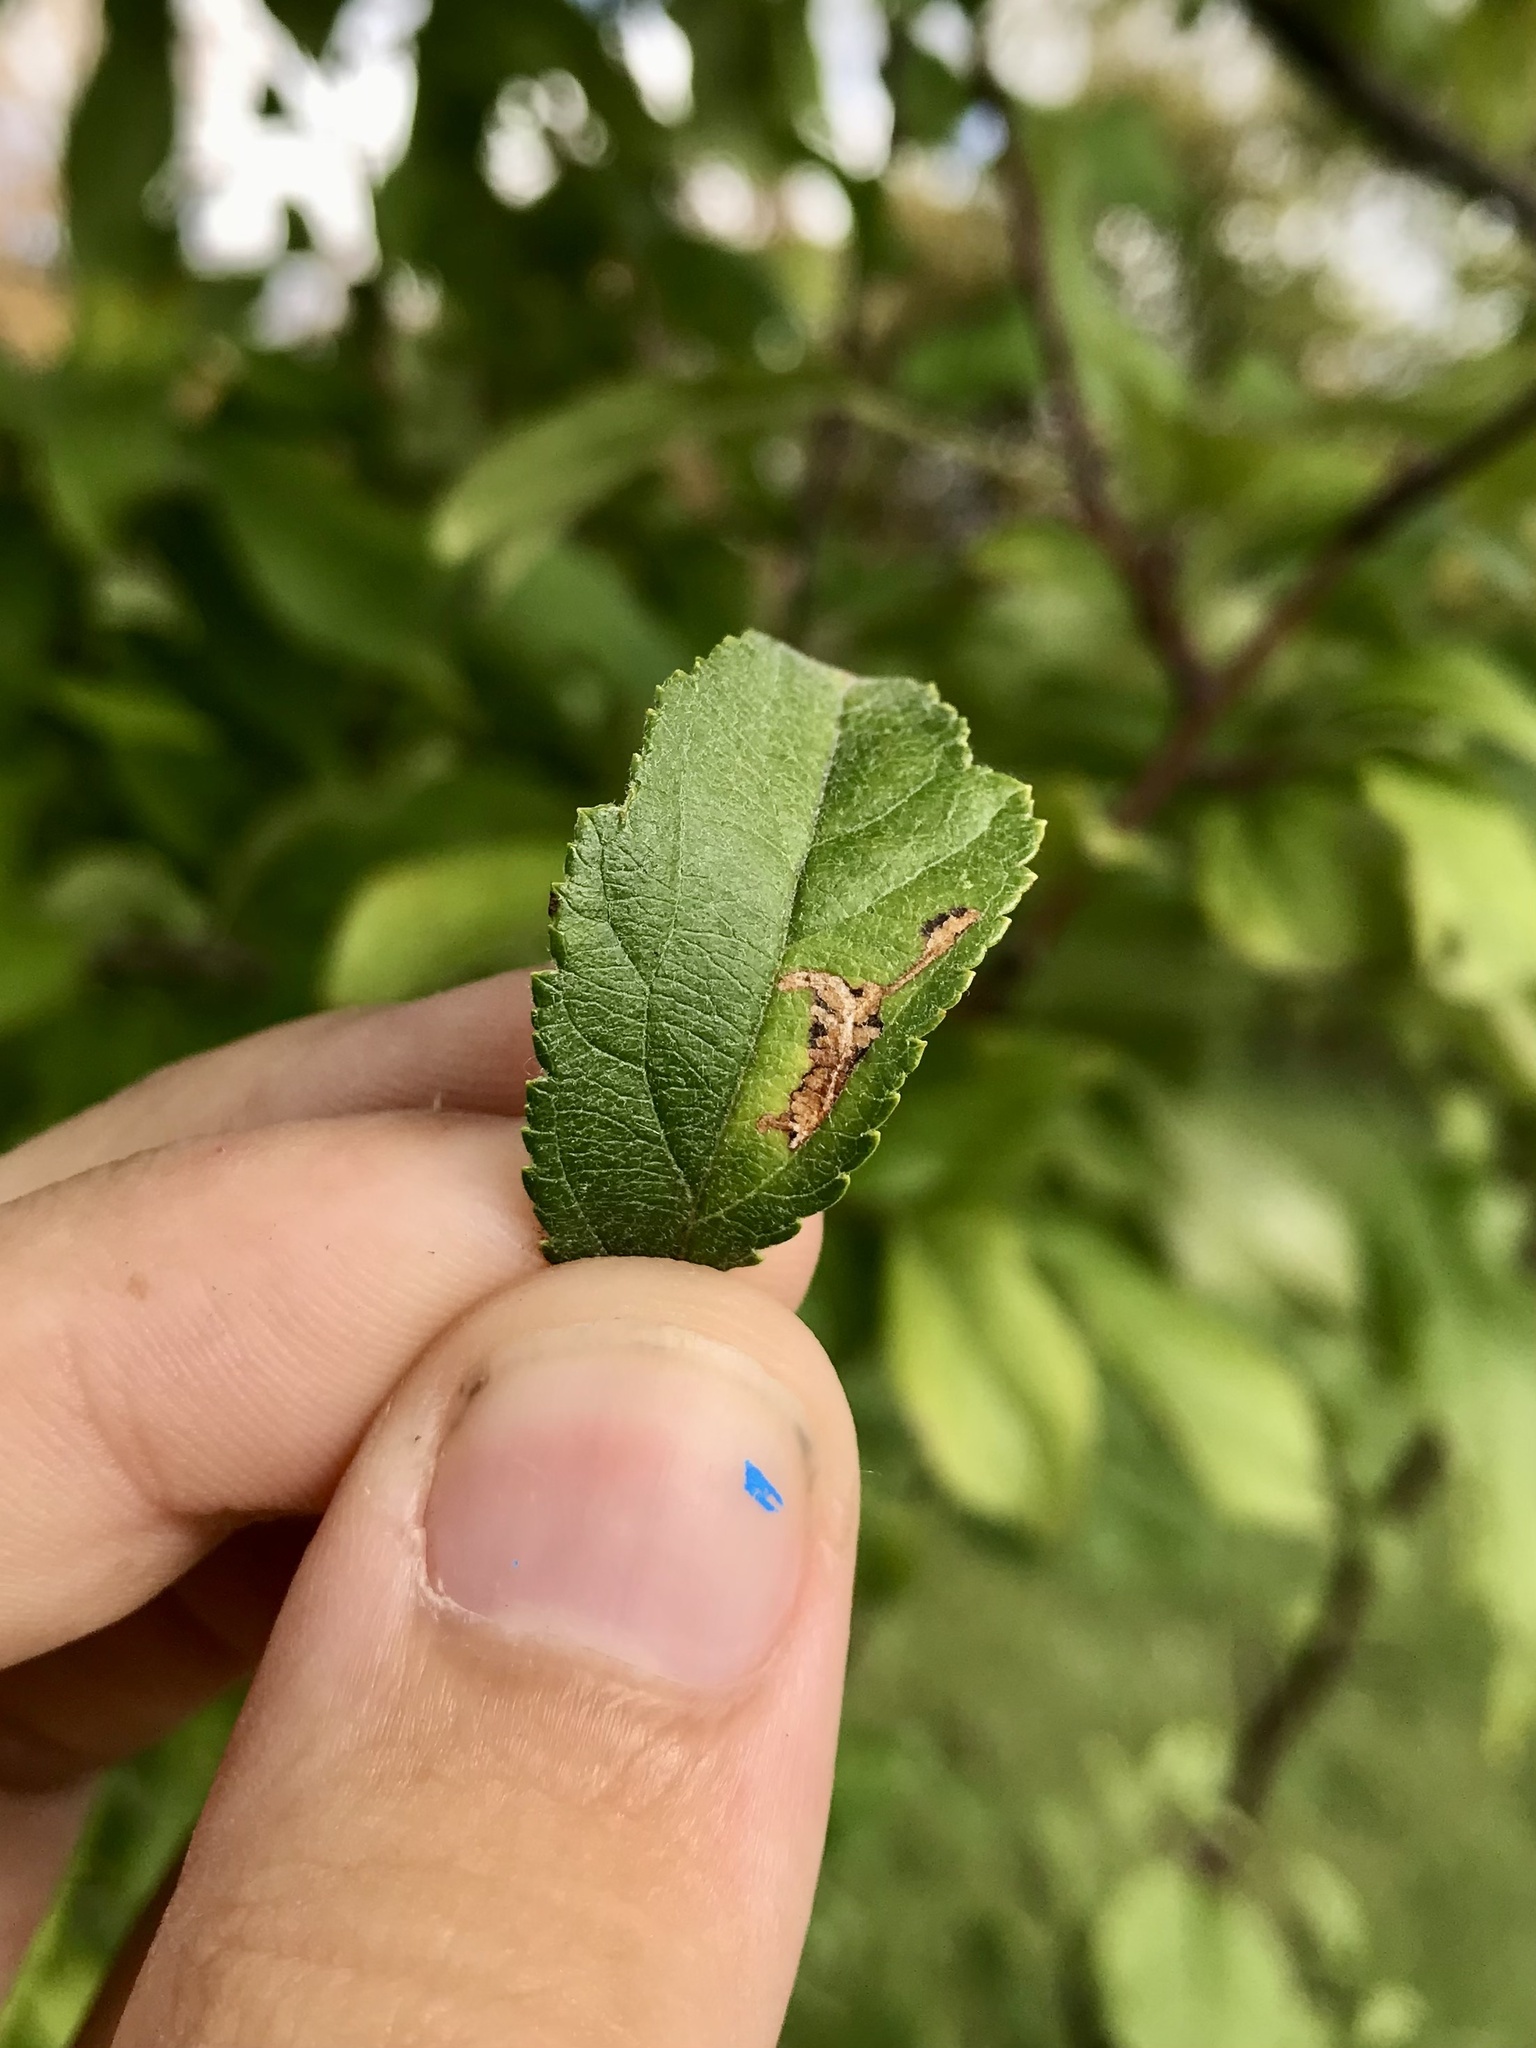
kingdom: Animalia
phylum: Arthropoda
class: Insecta
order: Lepidoptera
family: Gelechiidae
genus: Recurvaria
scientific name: Recurvaria nanella
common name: Gelechiid moth
